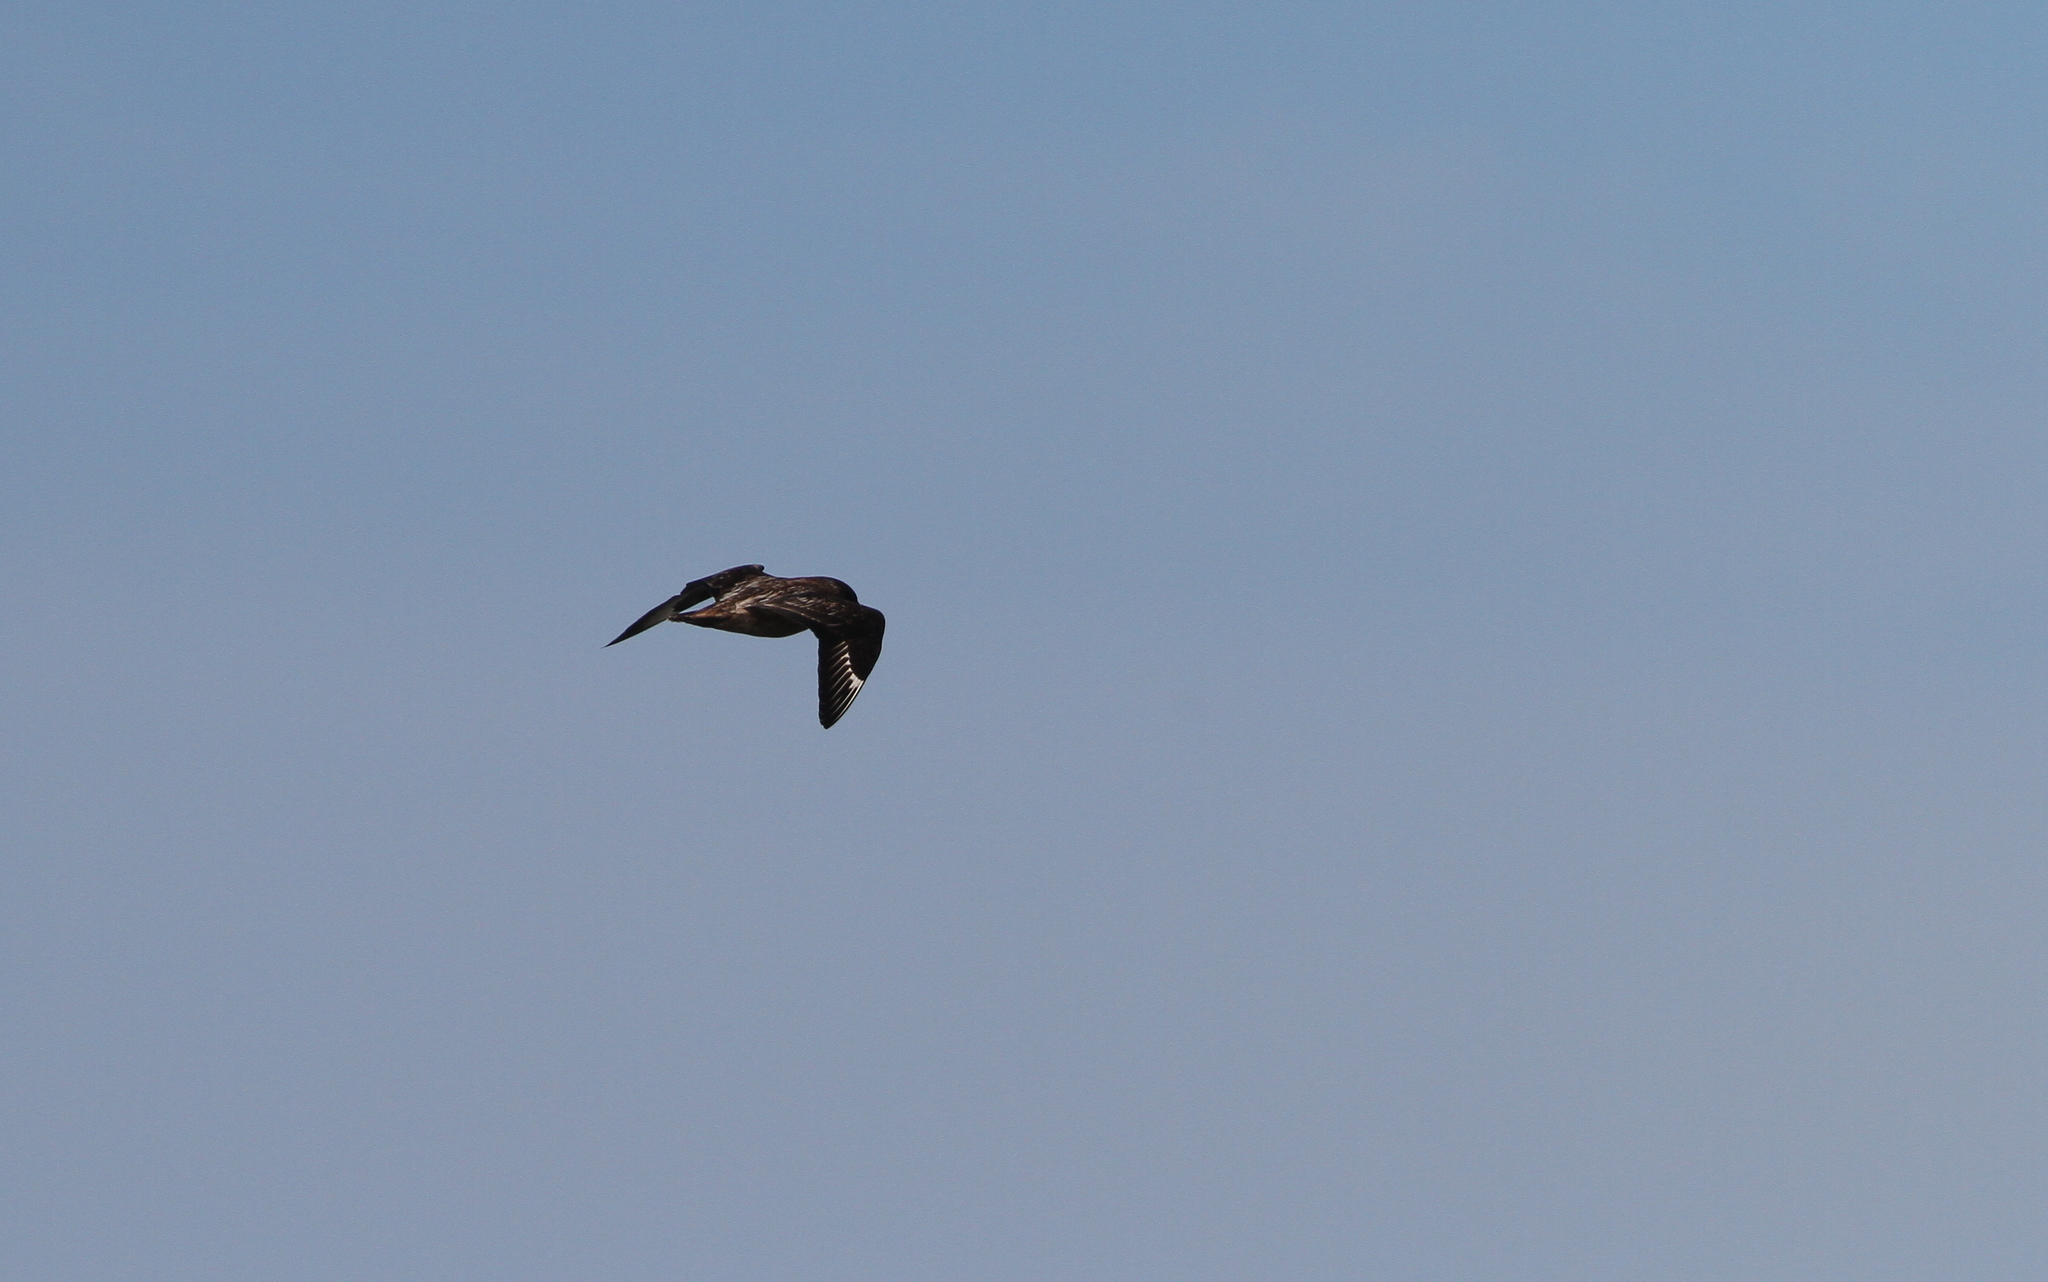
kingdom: Animalia
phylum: Chordata
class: Aves
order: Charadriiformes
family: Stercorariidae
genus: Stercorarius
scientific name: Stercorarius skua
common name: Great skua
